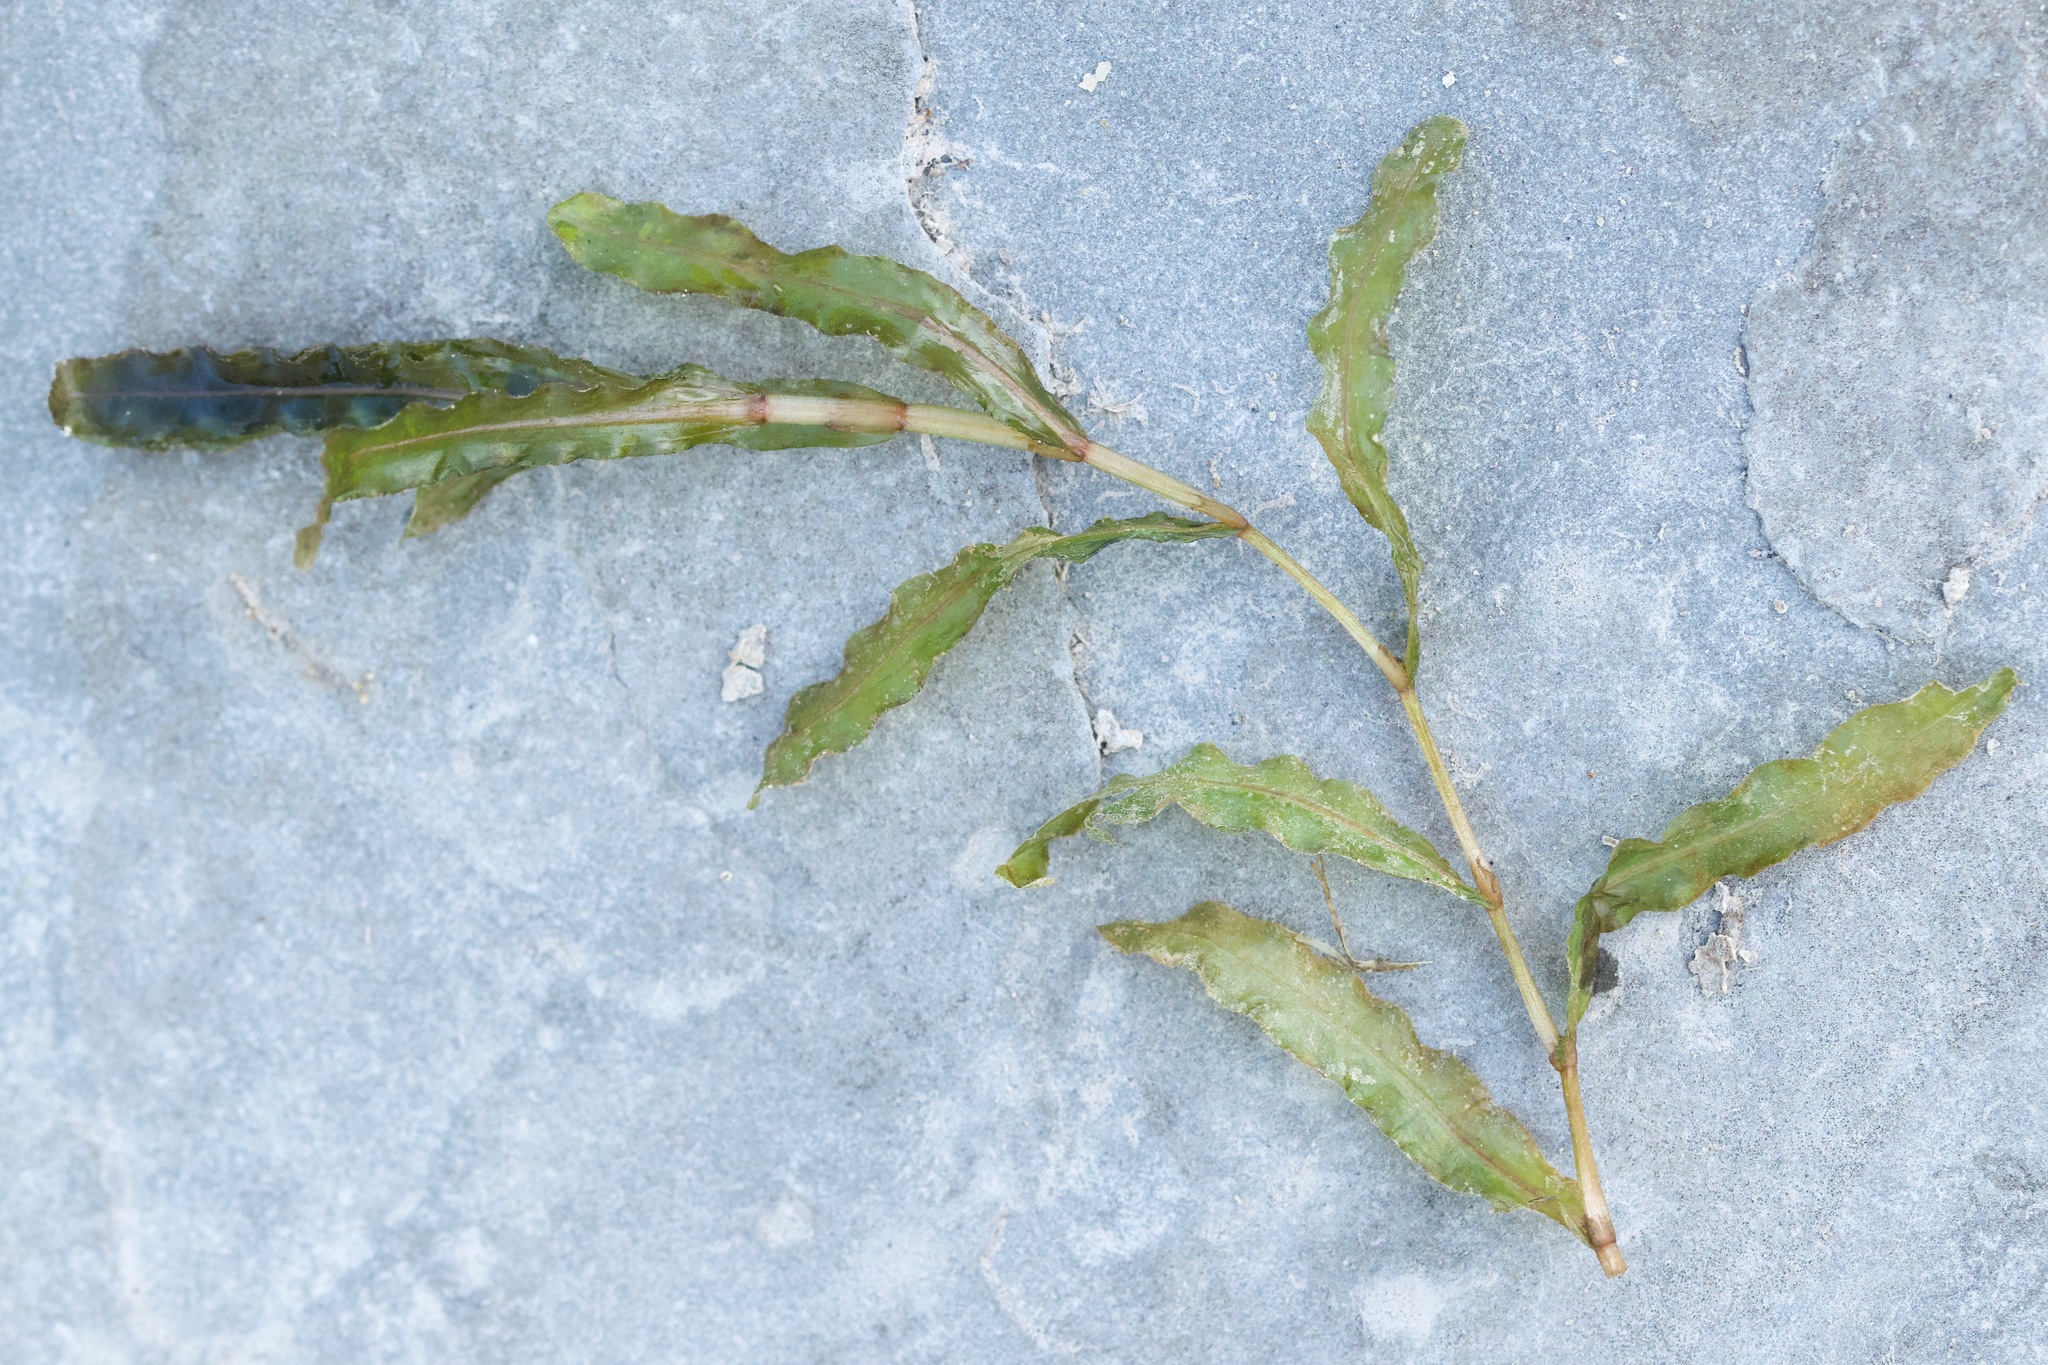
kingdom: Plantae
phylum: Tracheophyta
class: Liliopsida
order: Alismatales
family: Potamogetonaceae
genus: Potamogeton
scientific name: Potamogeton crispus
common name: Curled pondweed
